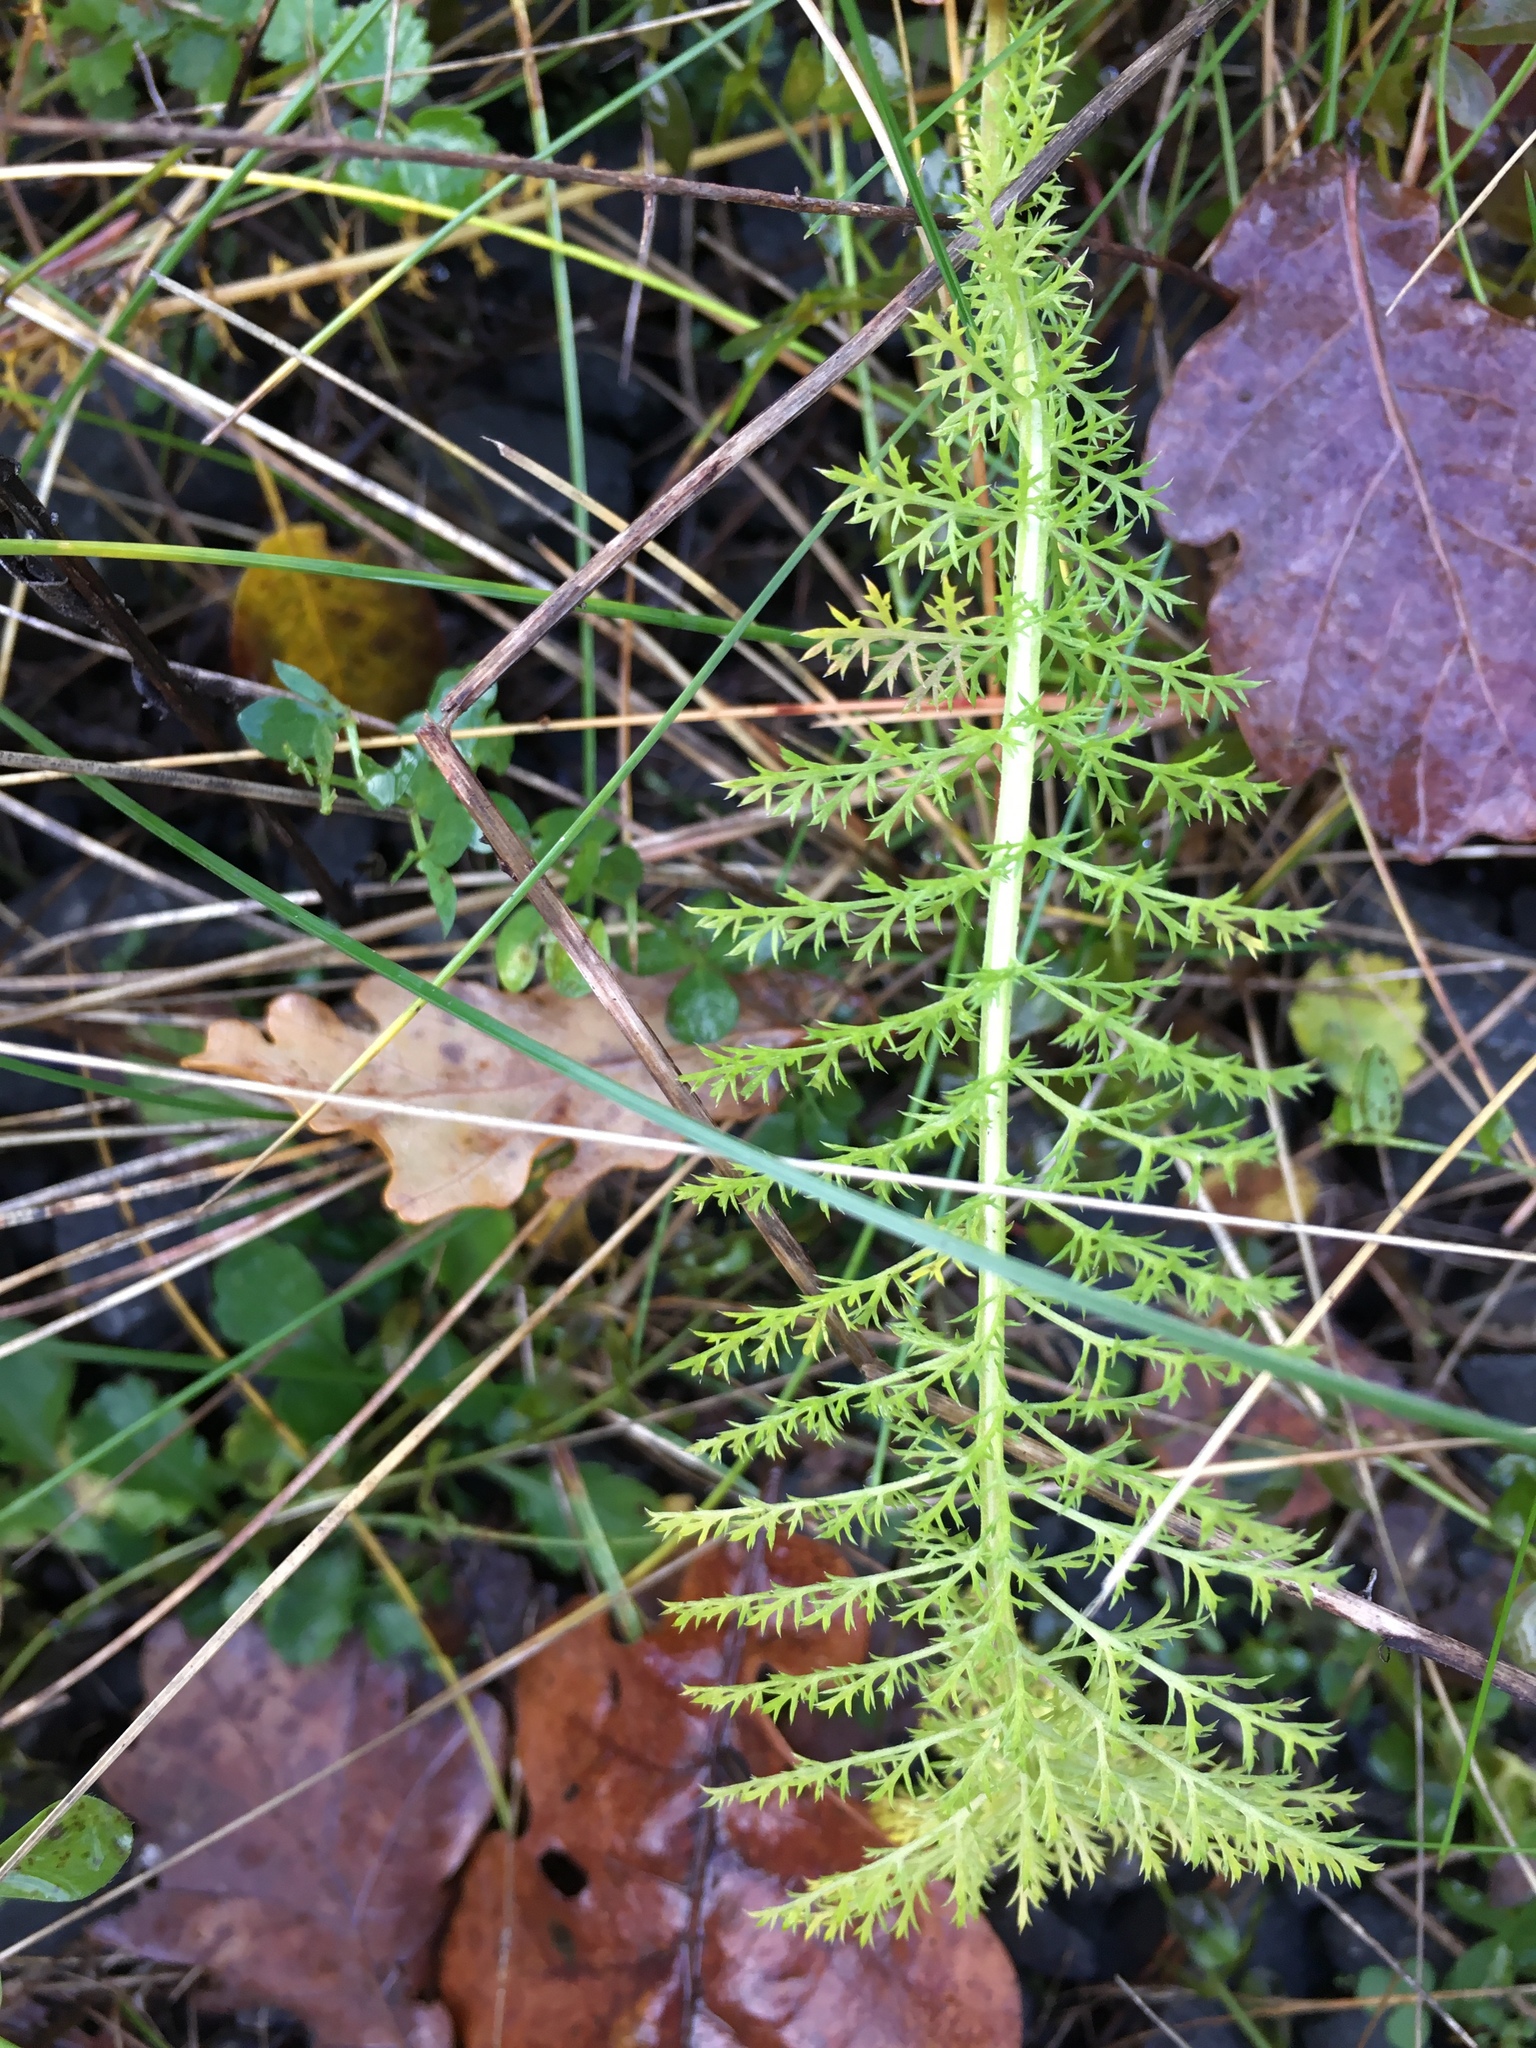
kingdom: Plantae
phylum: Tracheophyta
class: Magnoliopsida
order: Asterales
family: Asteraceae
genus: Achillea
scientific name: Achillea millefolium
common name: Yarrow
